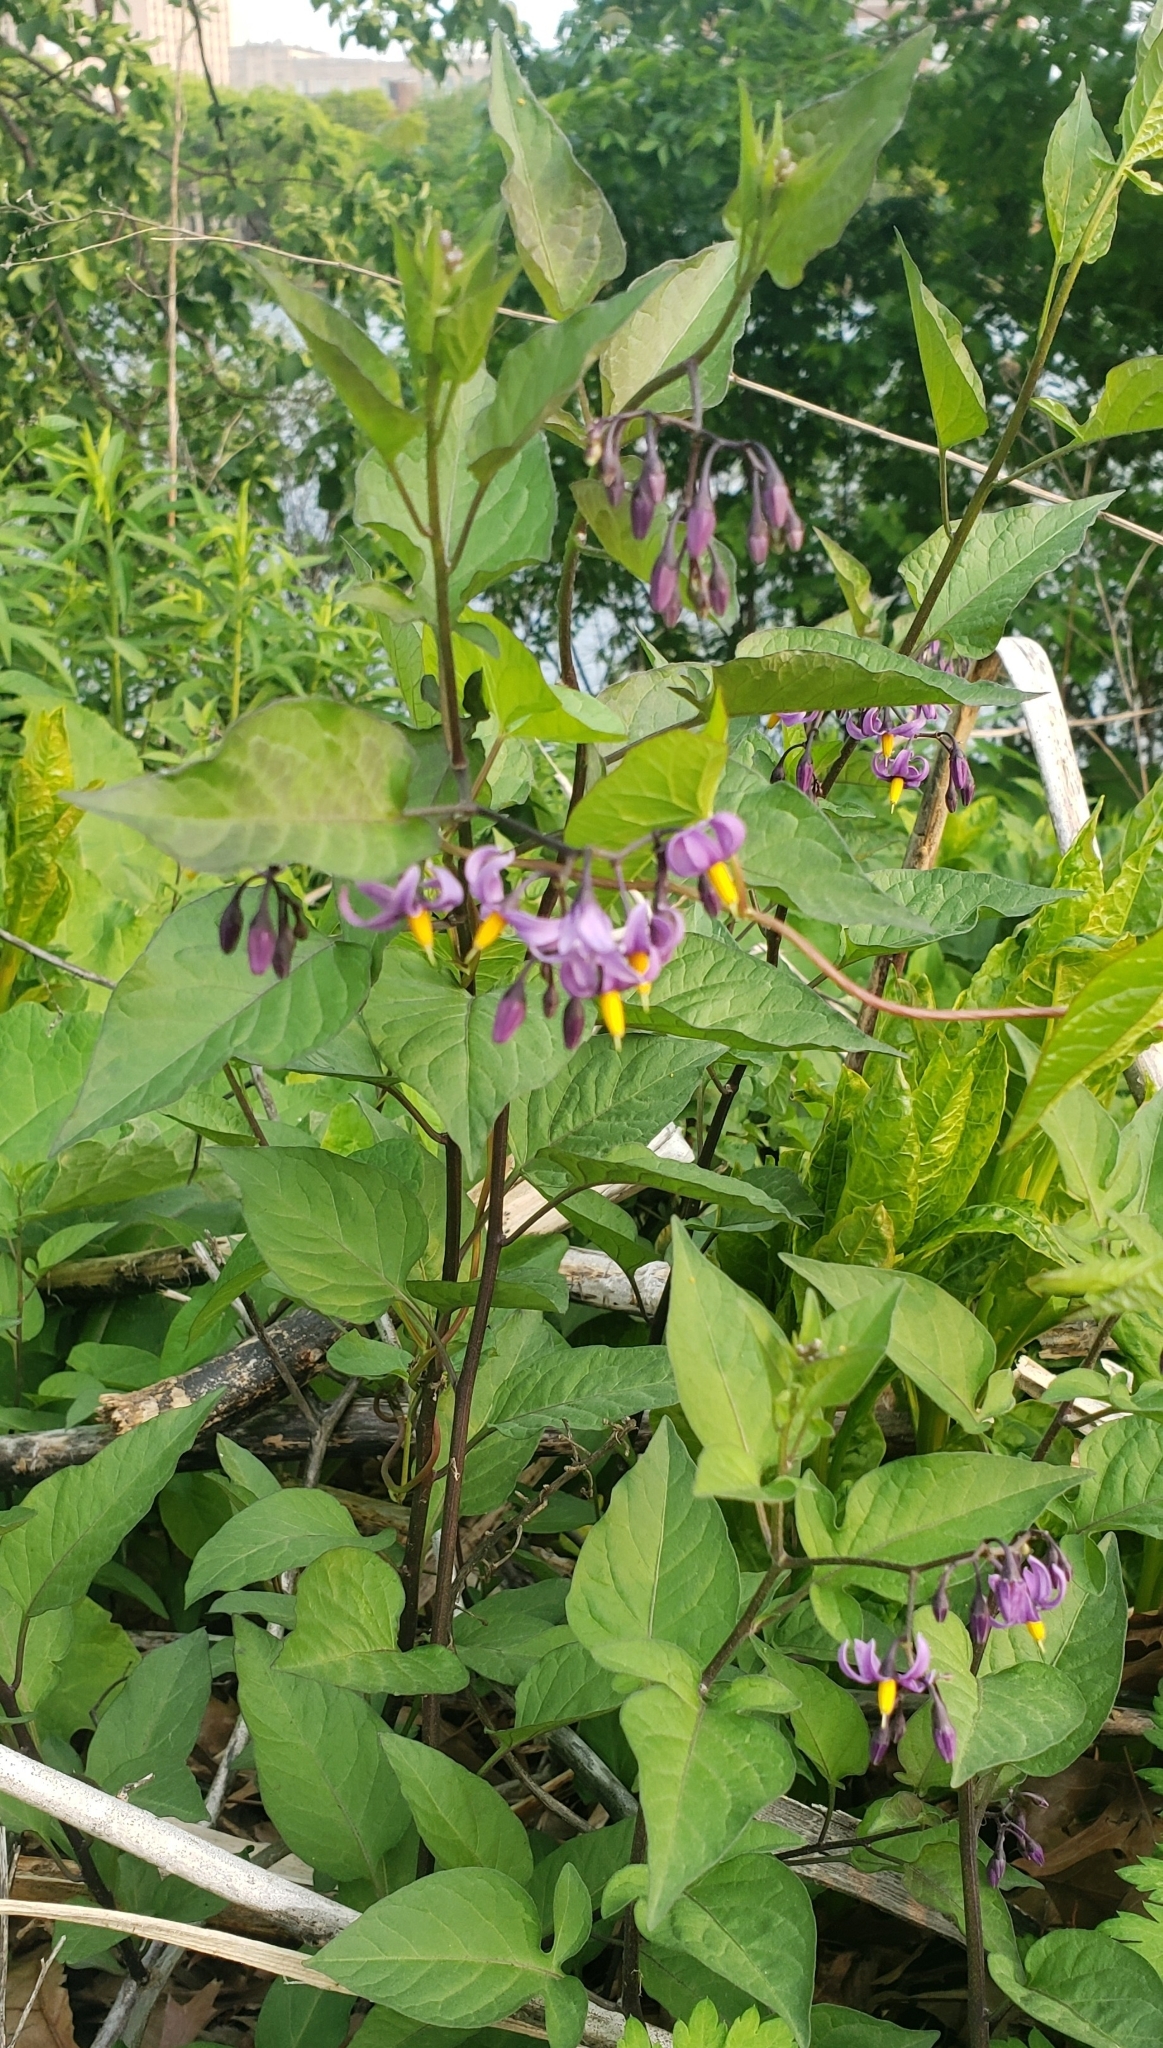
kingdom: Plantae
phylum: Tracheophyta
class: Magnoliopsida
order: Solanales
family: Solanaceae
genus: Solanum
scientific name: Solanum dulcamara
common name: Climbing nightshade
